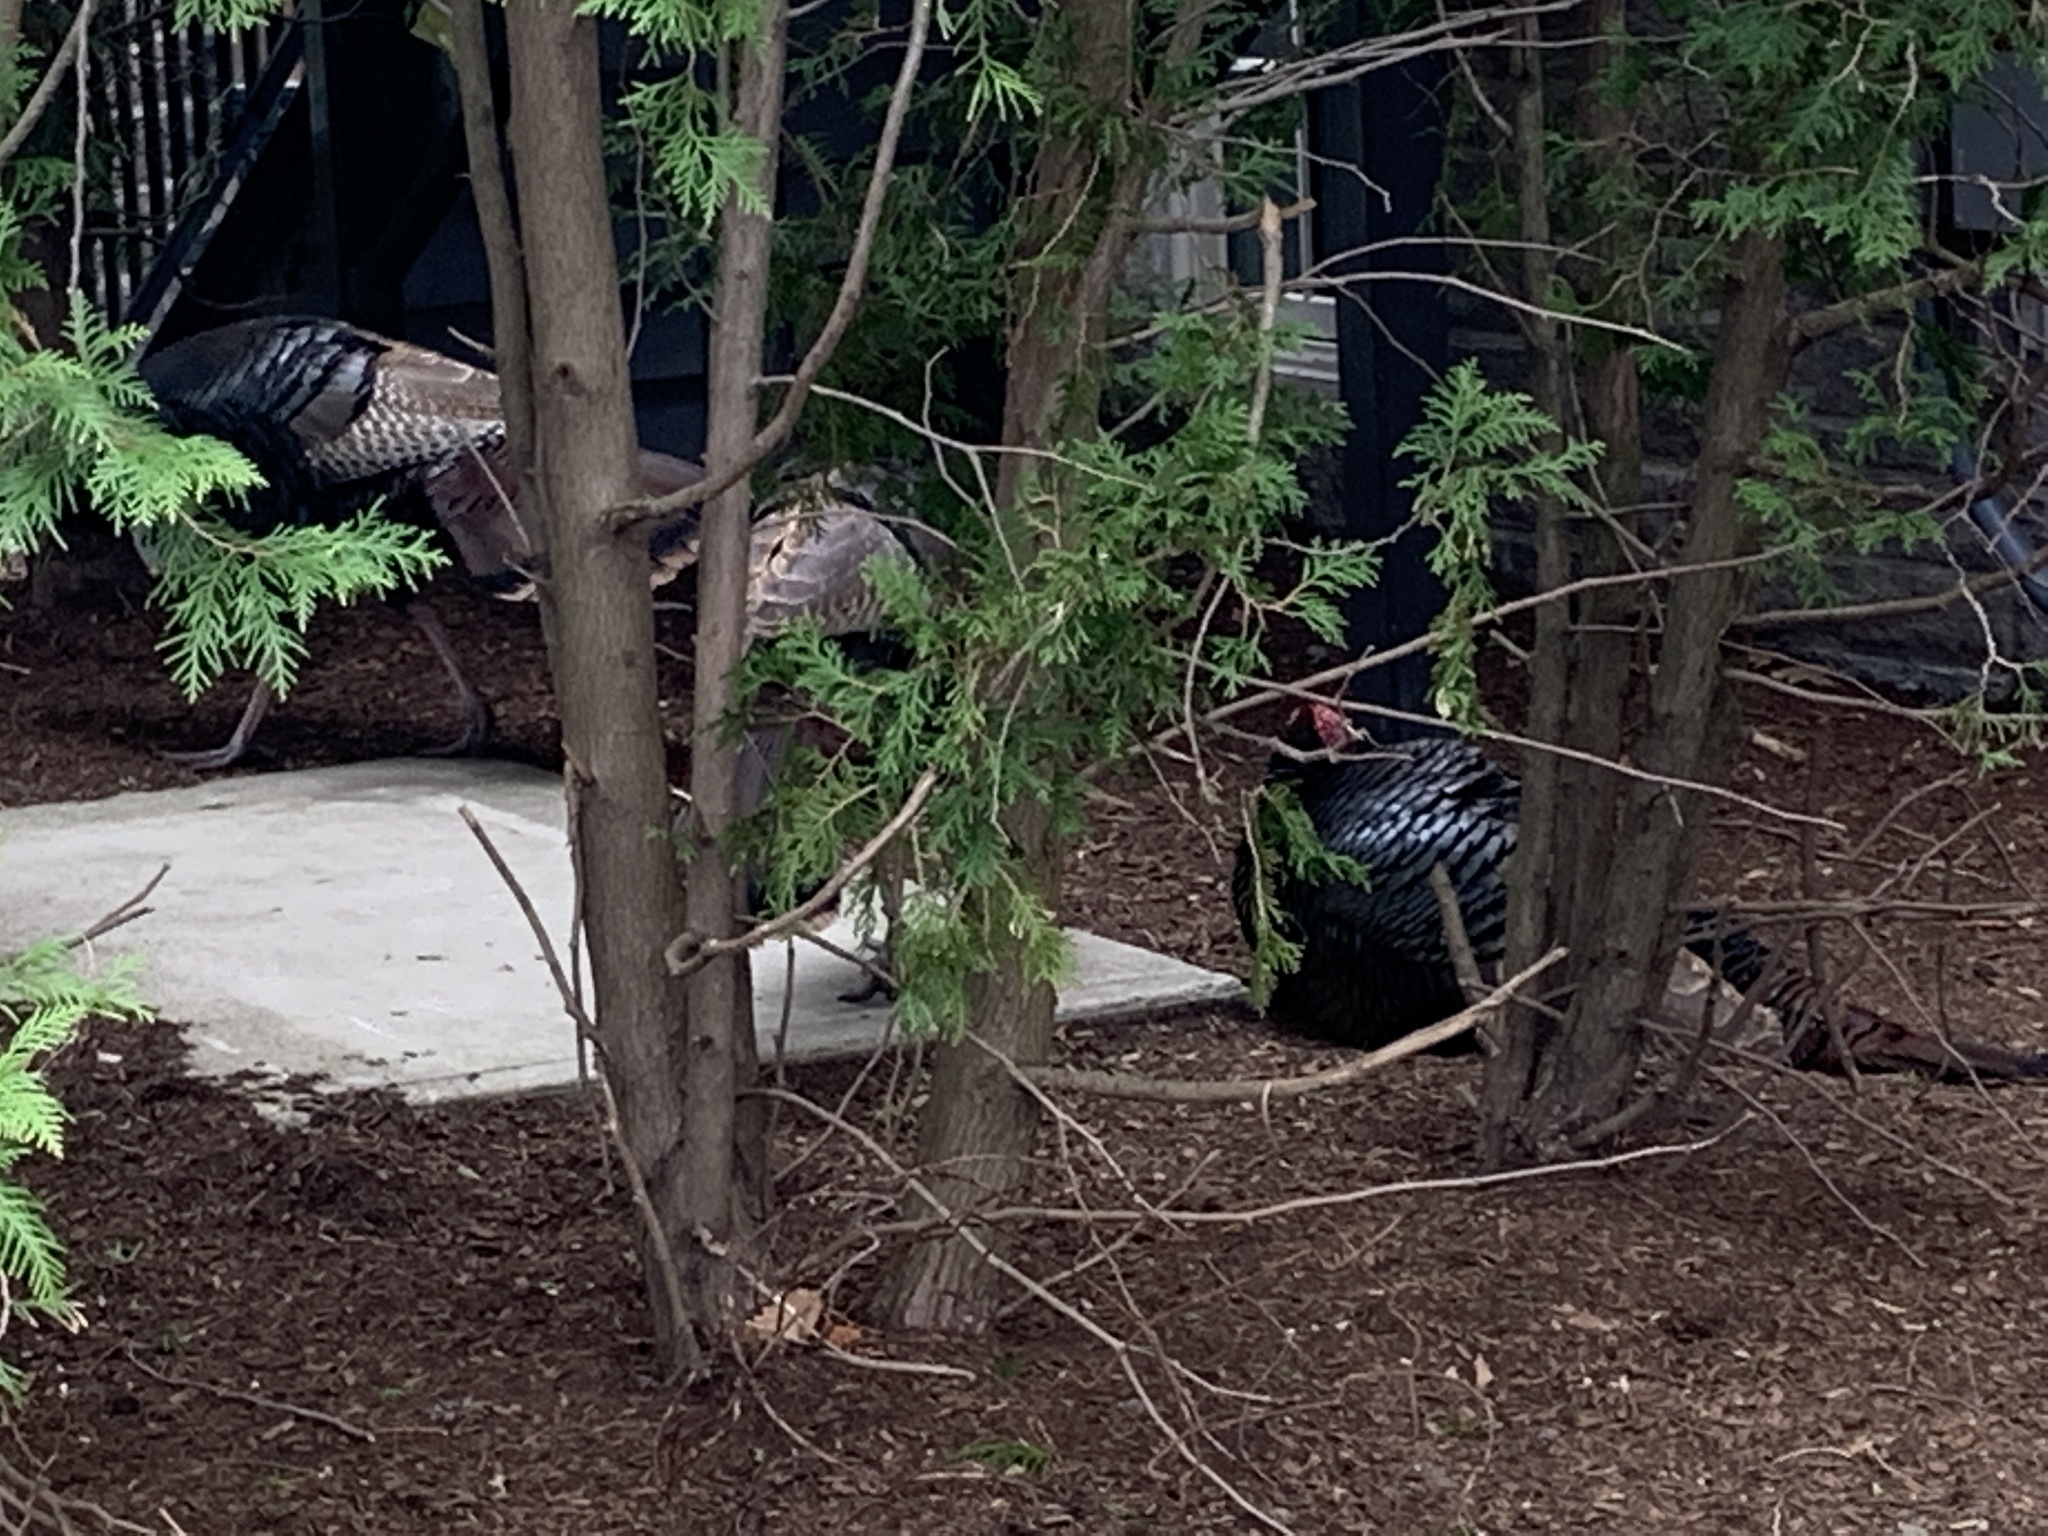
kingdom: Animalia
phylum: Chordata
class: Aves
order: Galliformes
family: Phasianidae
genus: Meleagris
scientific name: Meleagris gallopavo
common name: Wild turkey
